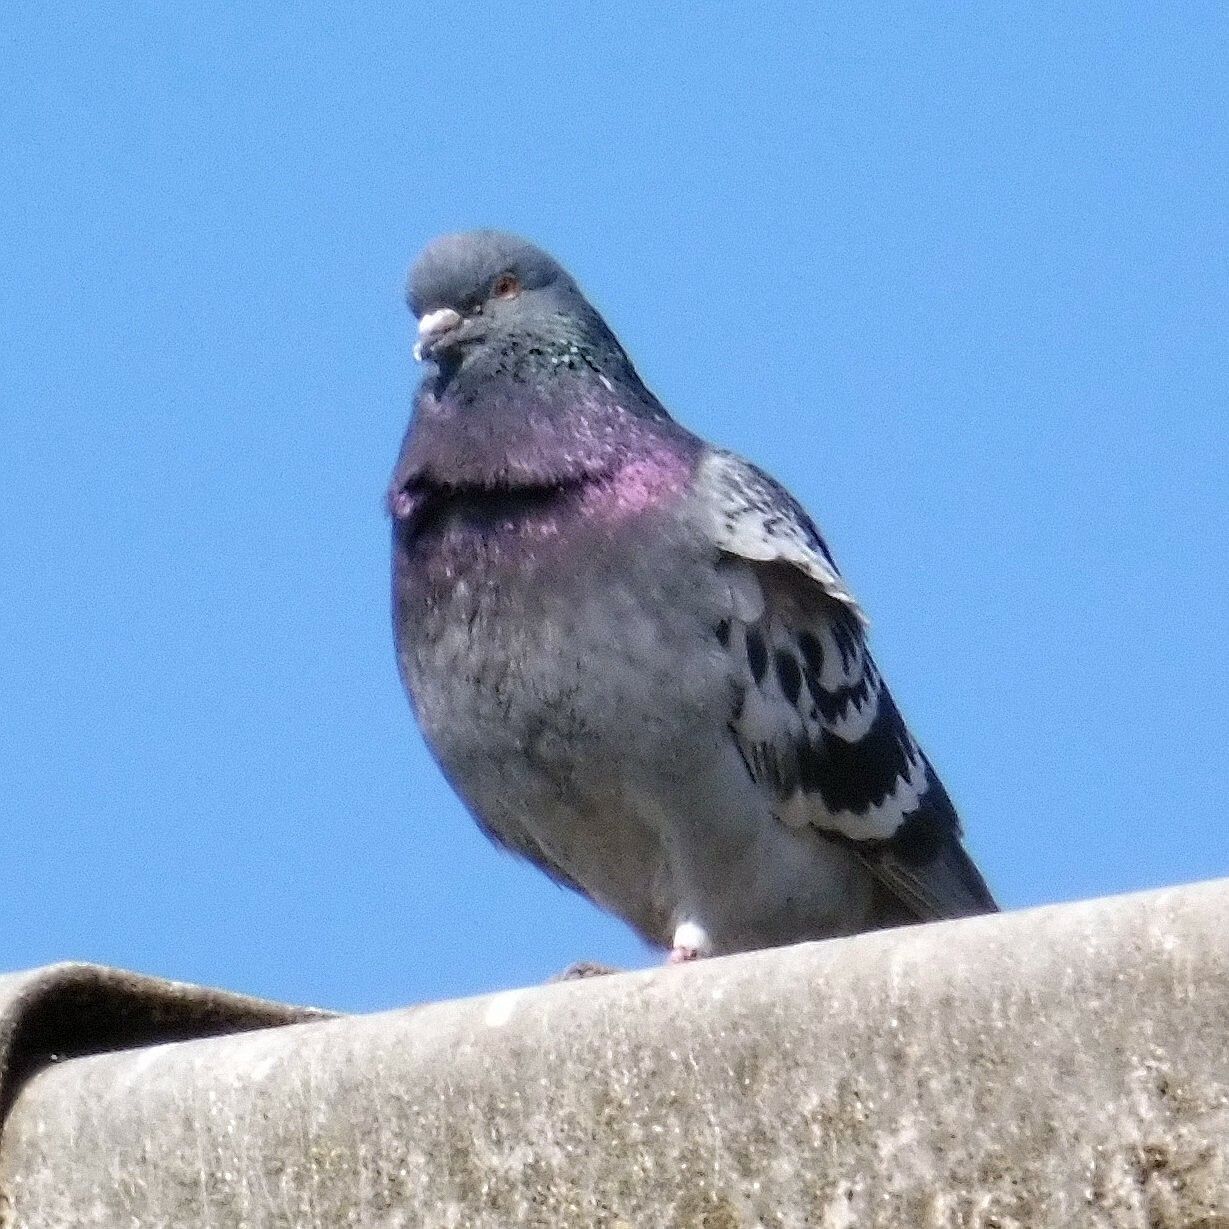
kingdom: Animalia
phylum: Chordata
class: Aves
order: Columbiformes
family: Columbidae
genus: Columba
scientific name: Columba livia
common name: Rock pigeon
